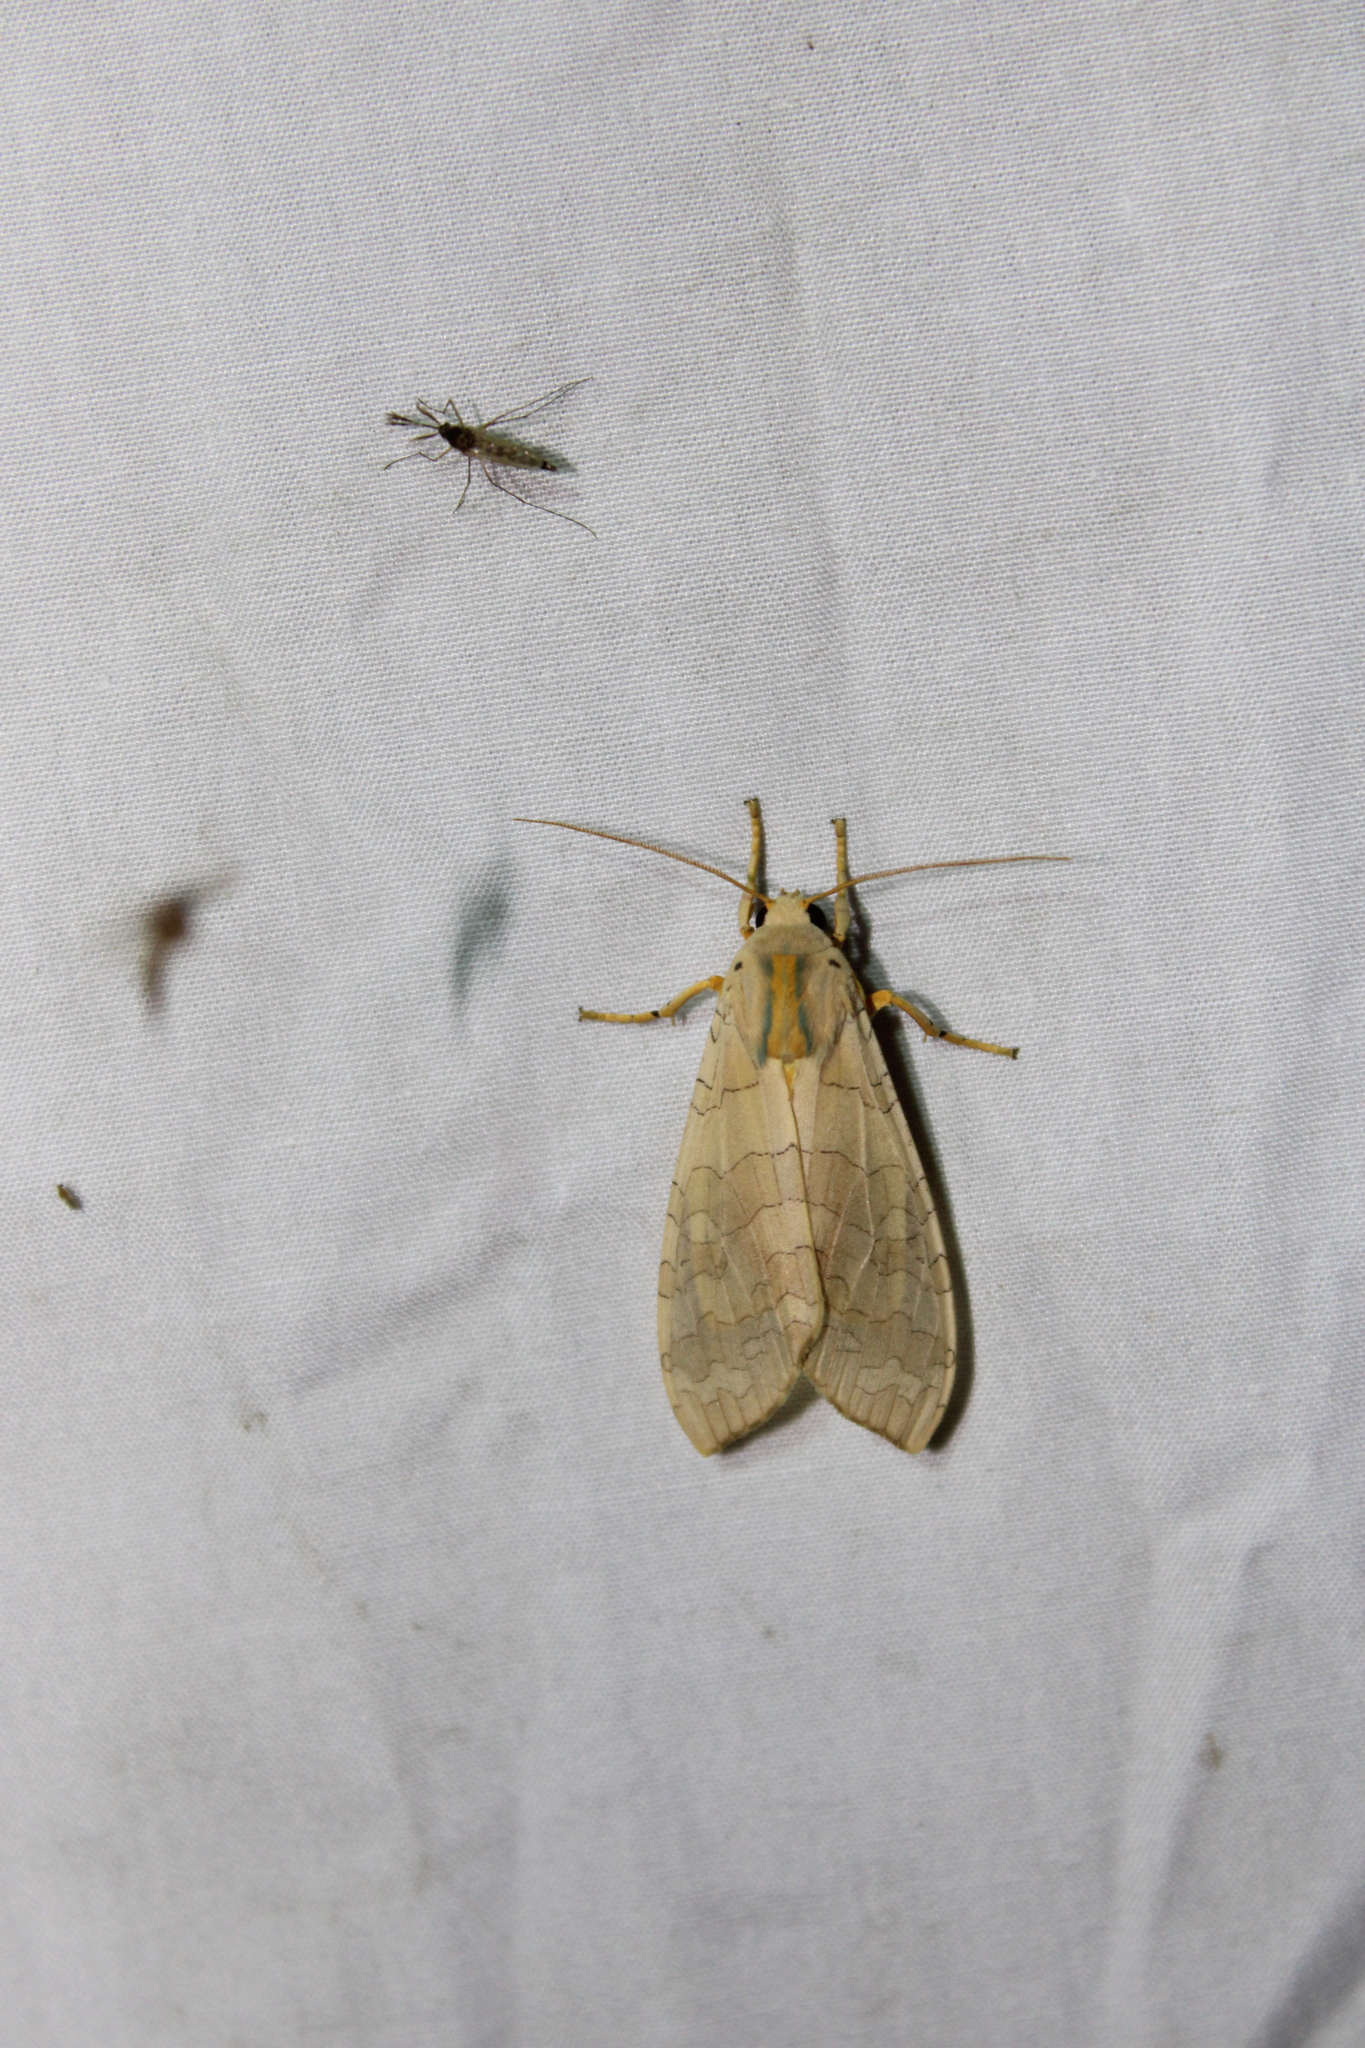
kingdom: Animalia
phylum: Arthropoda
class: Insecta
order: Lepidoptera
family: Erebidae
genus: Halysidota
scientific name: Halysidota
